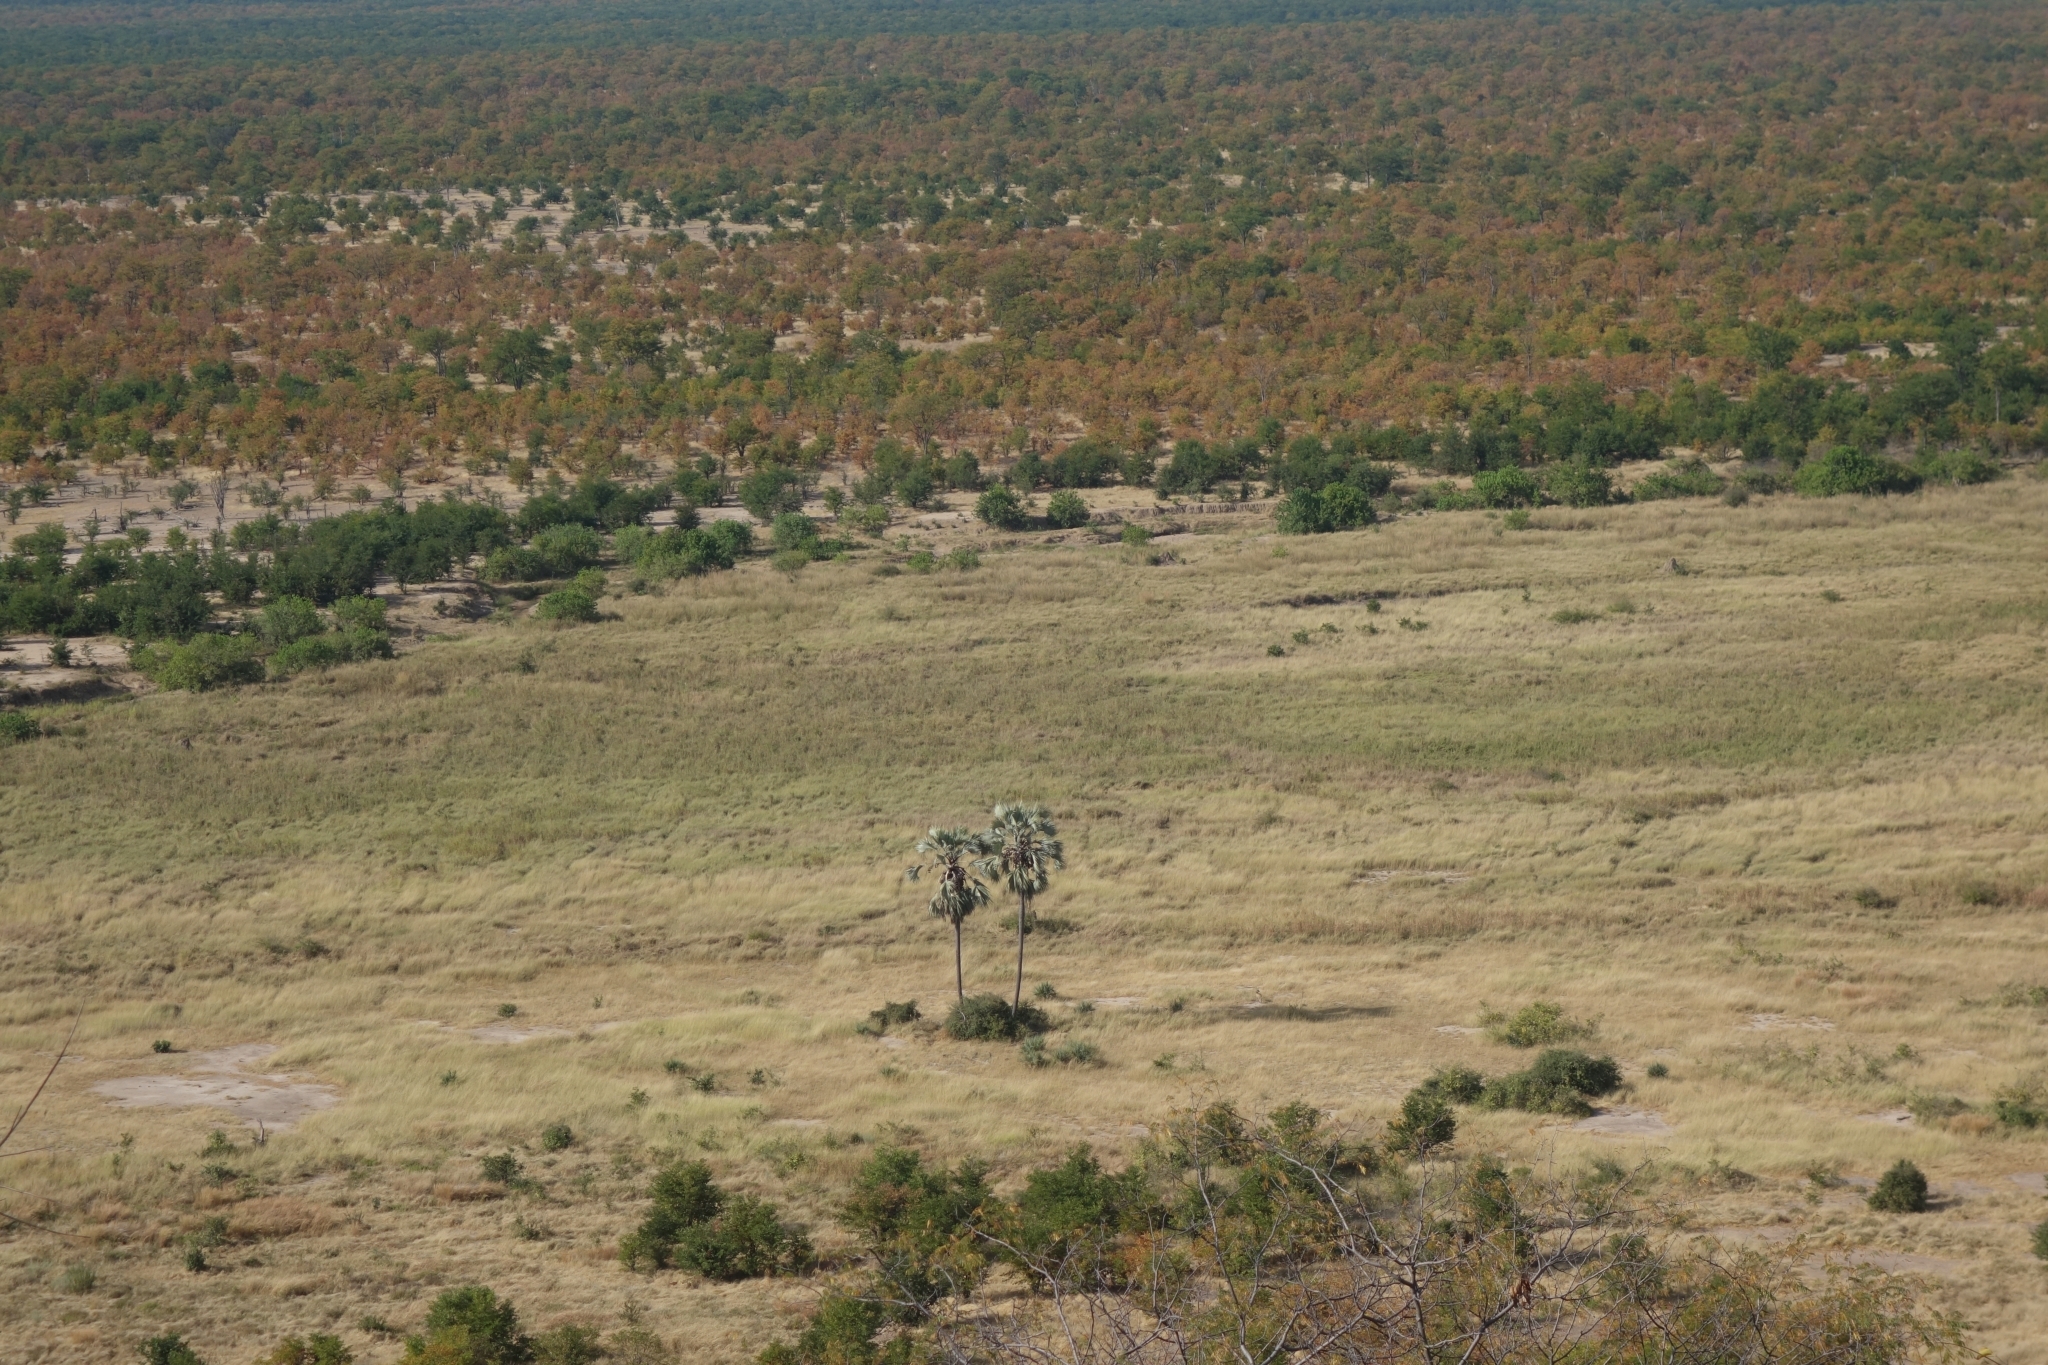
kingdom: Animalia
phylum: Chordata
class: Mammalia
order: Carnivora
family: Felidae
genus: Acinonyx
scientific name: Acinonyx jubatus
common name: Cheetah
